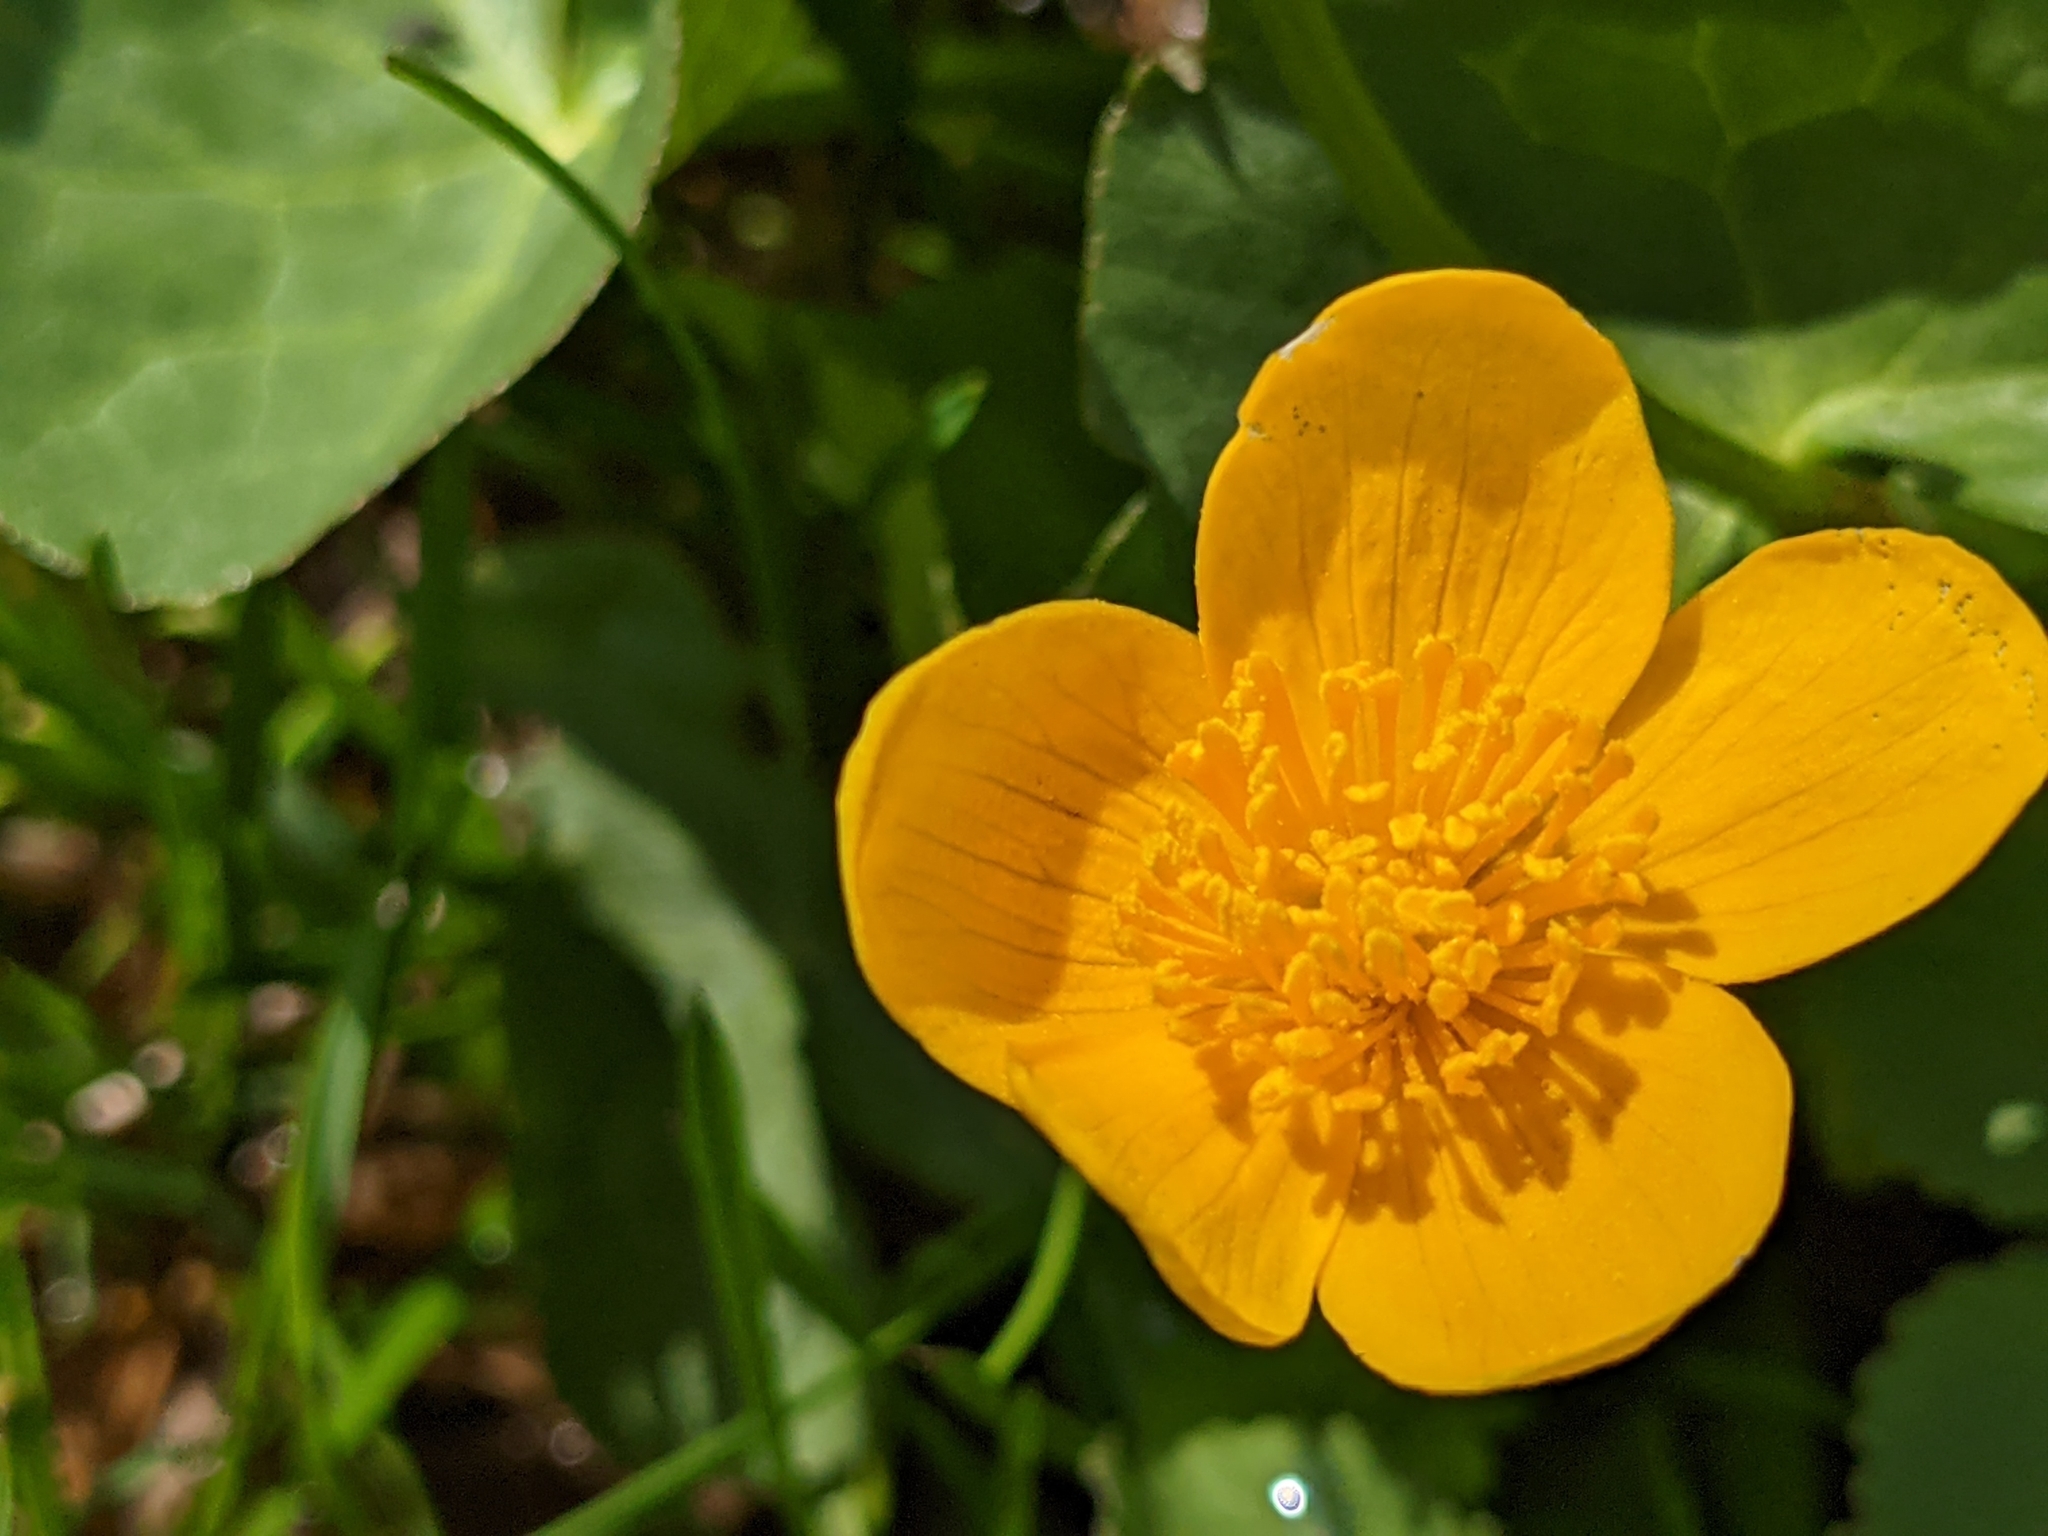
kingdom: Plantae
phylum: Tracheophyta
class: Magnoliopsida
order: Ranunculales
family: Ranunculaceae
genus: Caltha
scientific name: Caltha palustris
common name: Marsh marigold
